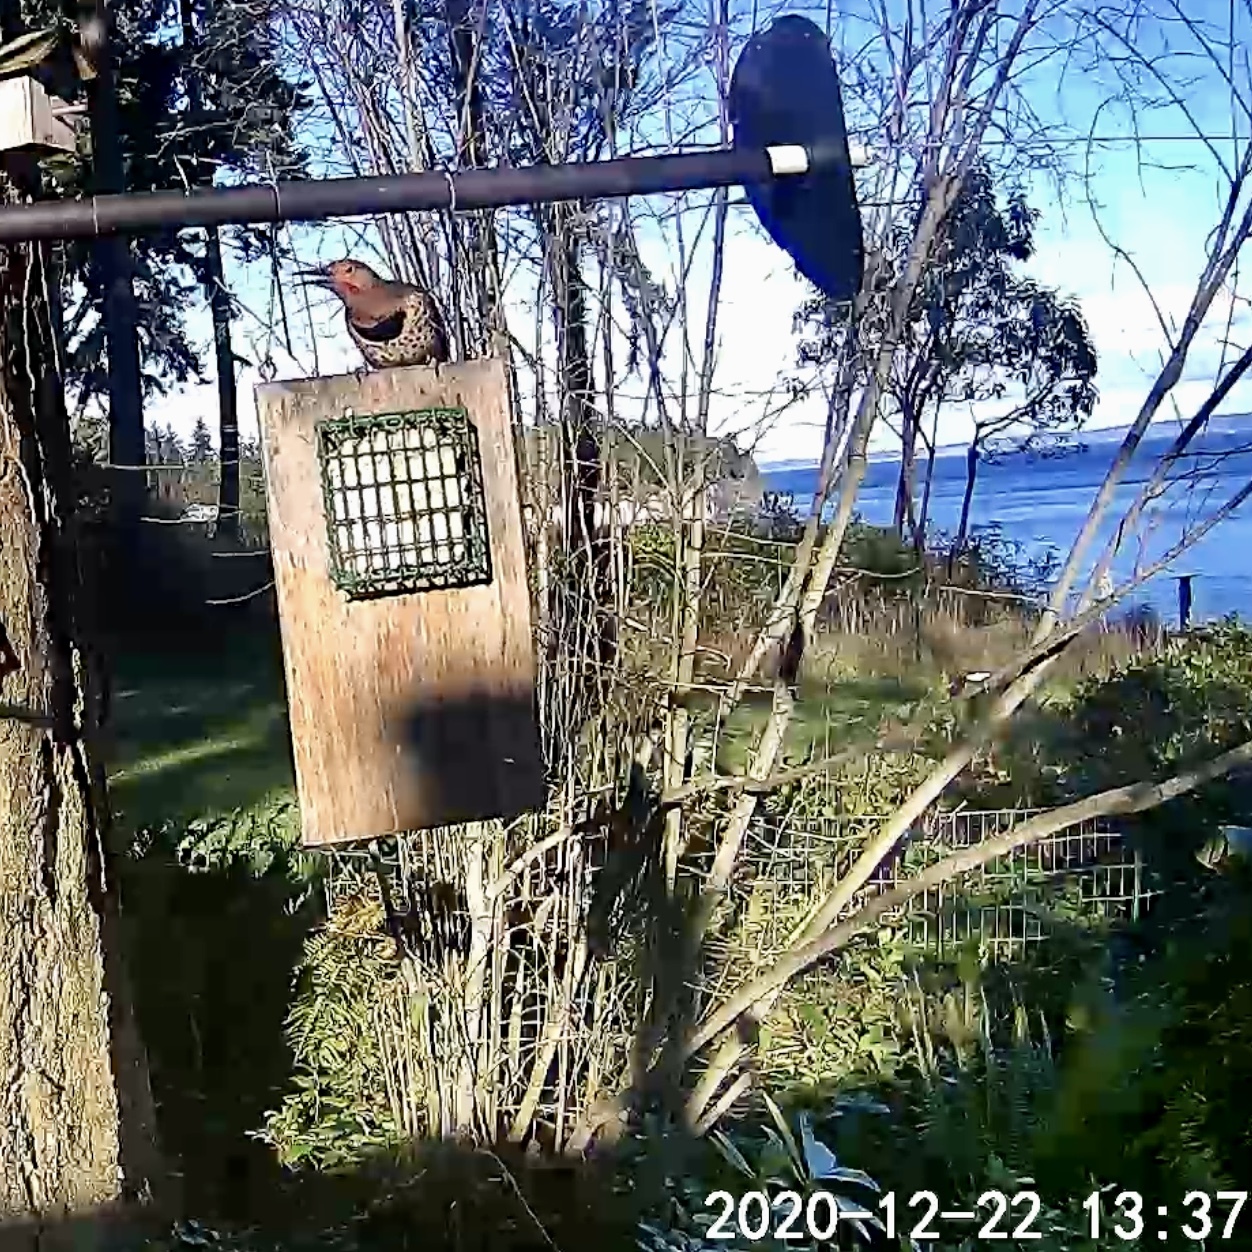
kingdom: Animalia
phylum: Chordata
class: Aves
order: Piciformes
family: Picidae
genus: Colaptes
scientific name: Colaptes auratus
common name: Northern flicker
